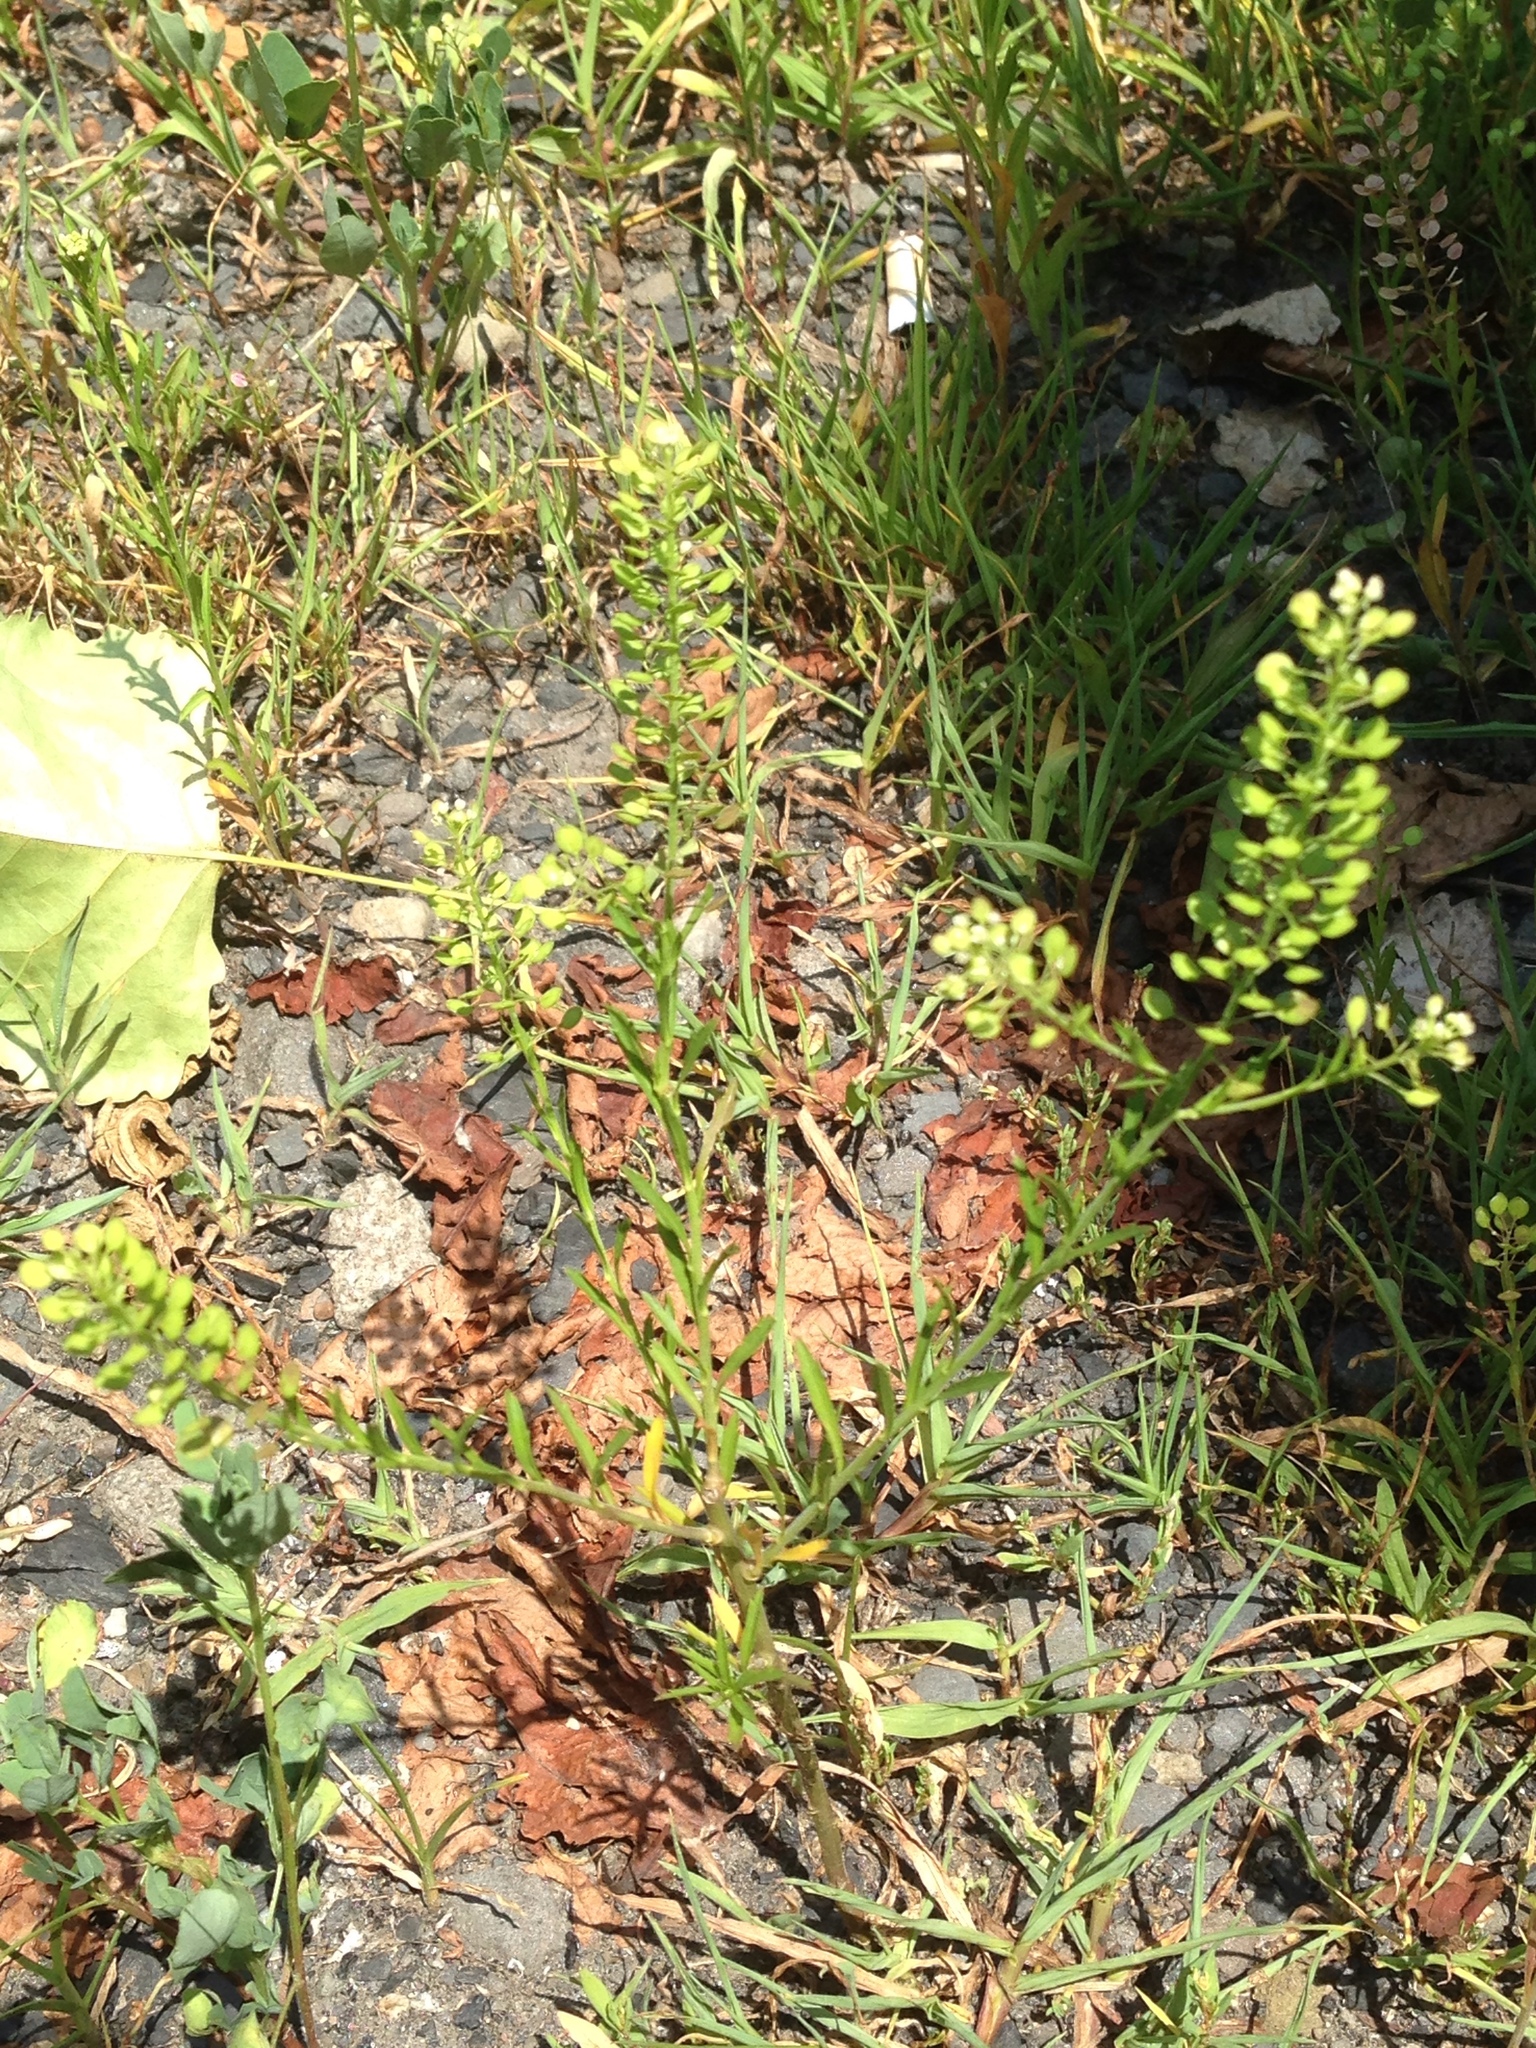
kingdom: Plantae
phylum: Tracheophyta
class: Magnoliopsida
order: Brassicales
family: Brassicaceae
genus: Lepidium
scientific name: Lepidium virginicum
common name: Least pepperwort
